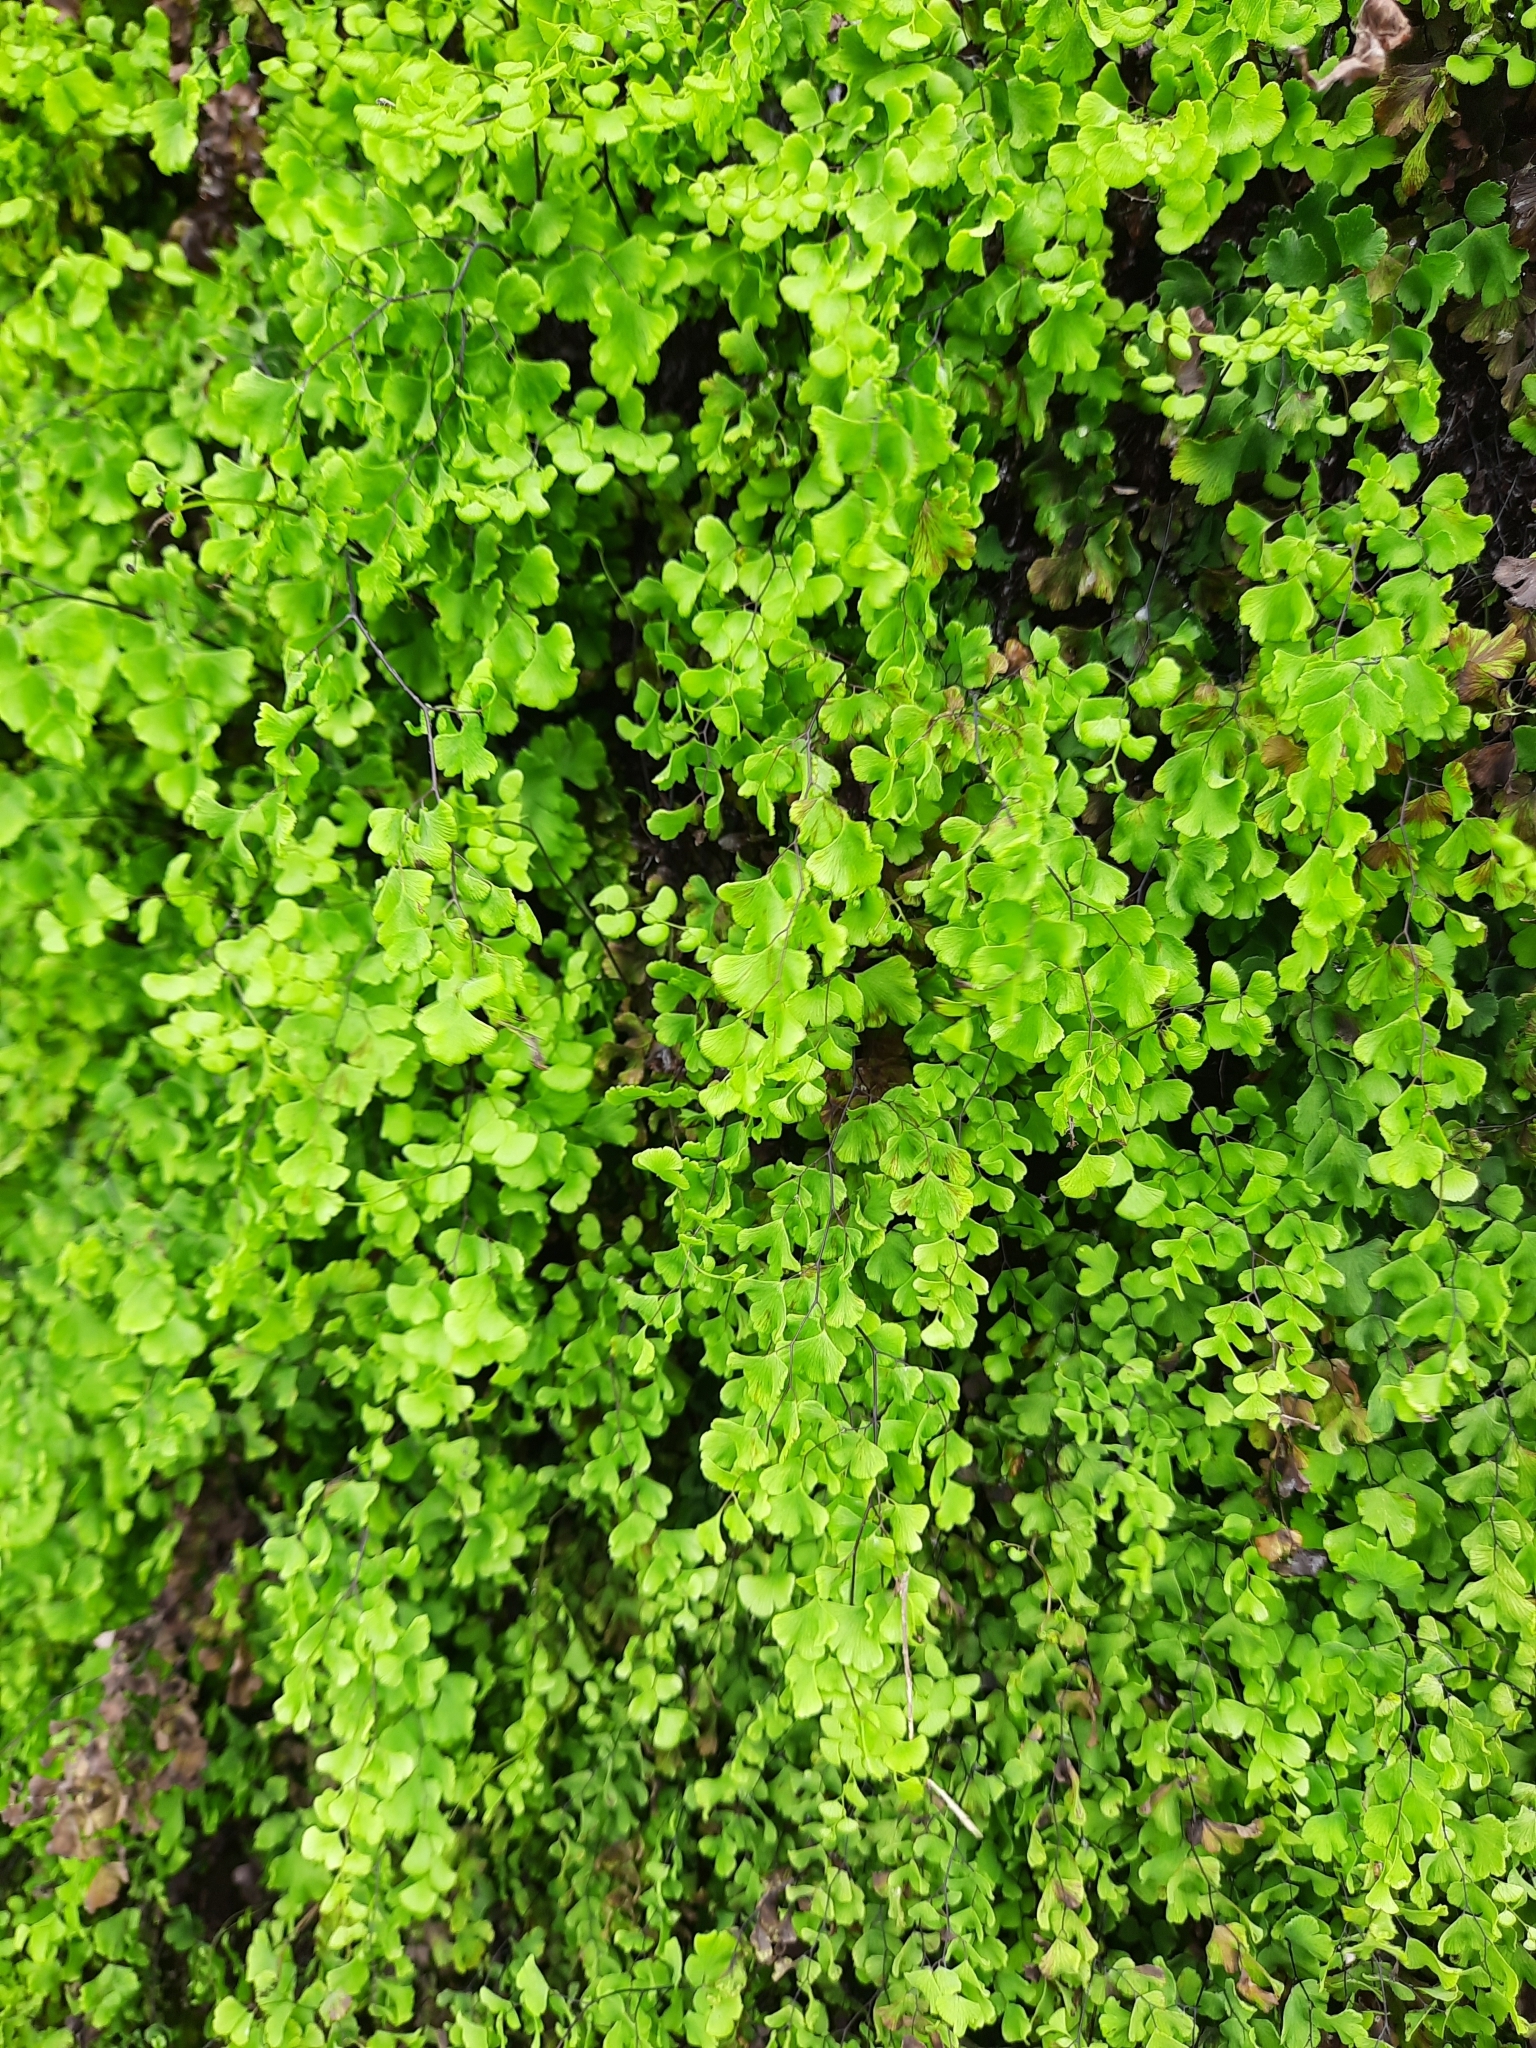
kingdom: Plantae
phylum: Tracheophyta
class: Polypodiopsida
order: Polypodiales
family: Pteridaceae
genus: Adiantum
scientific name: Adiantum capillus-veneris
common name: Maidenhair fern
